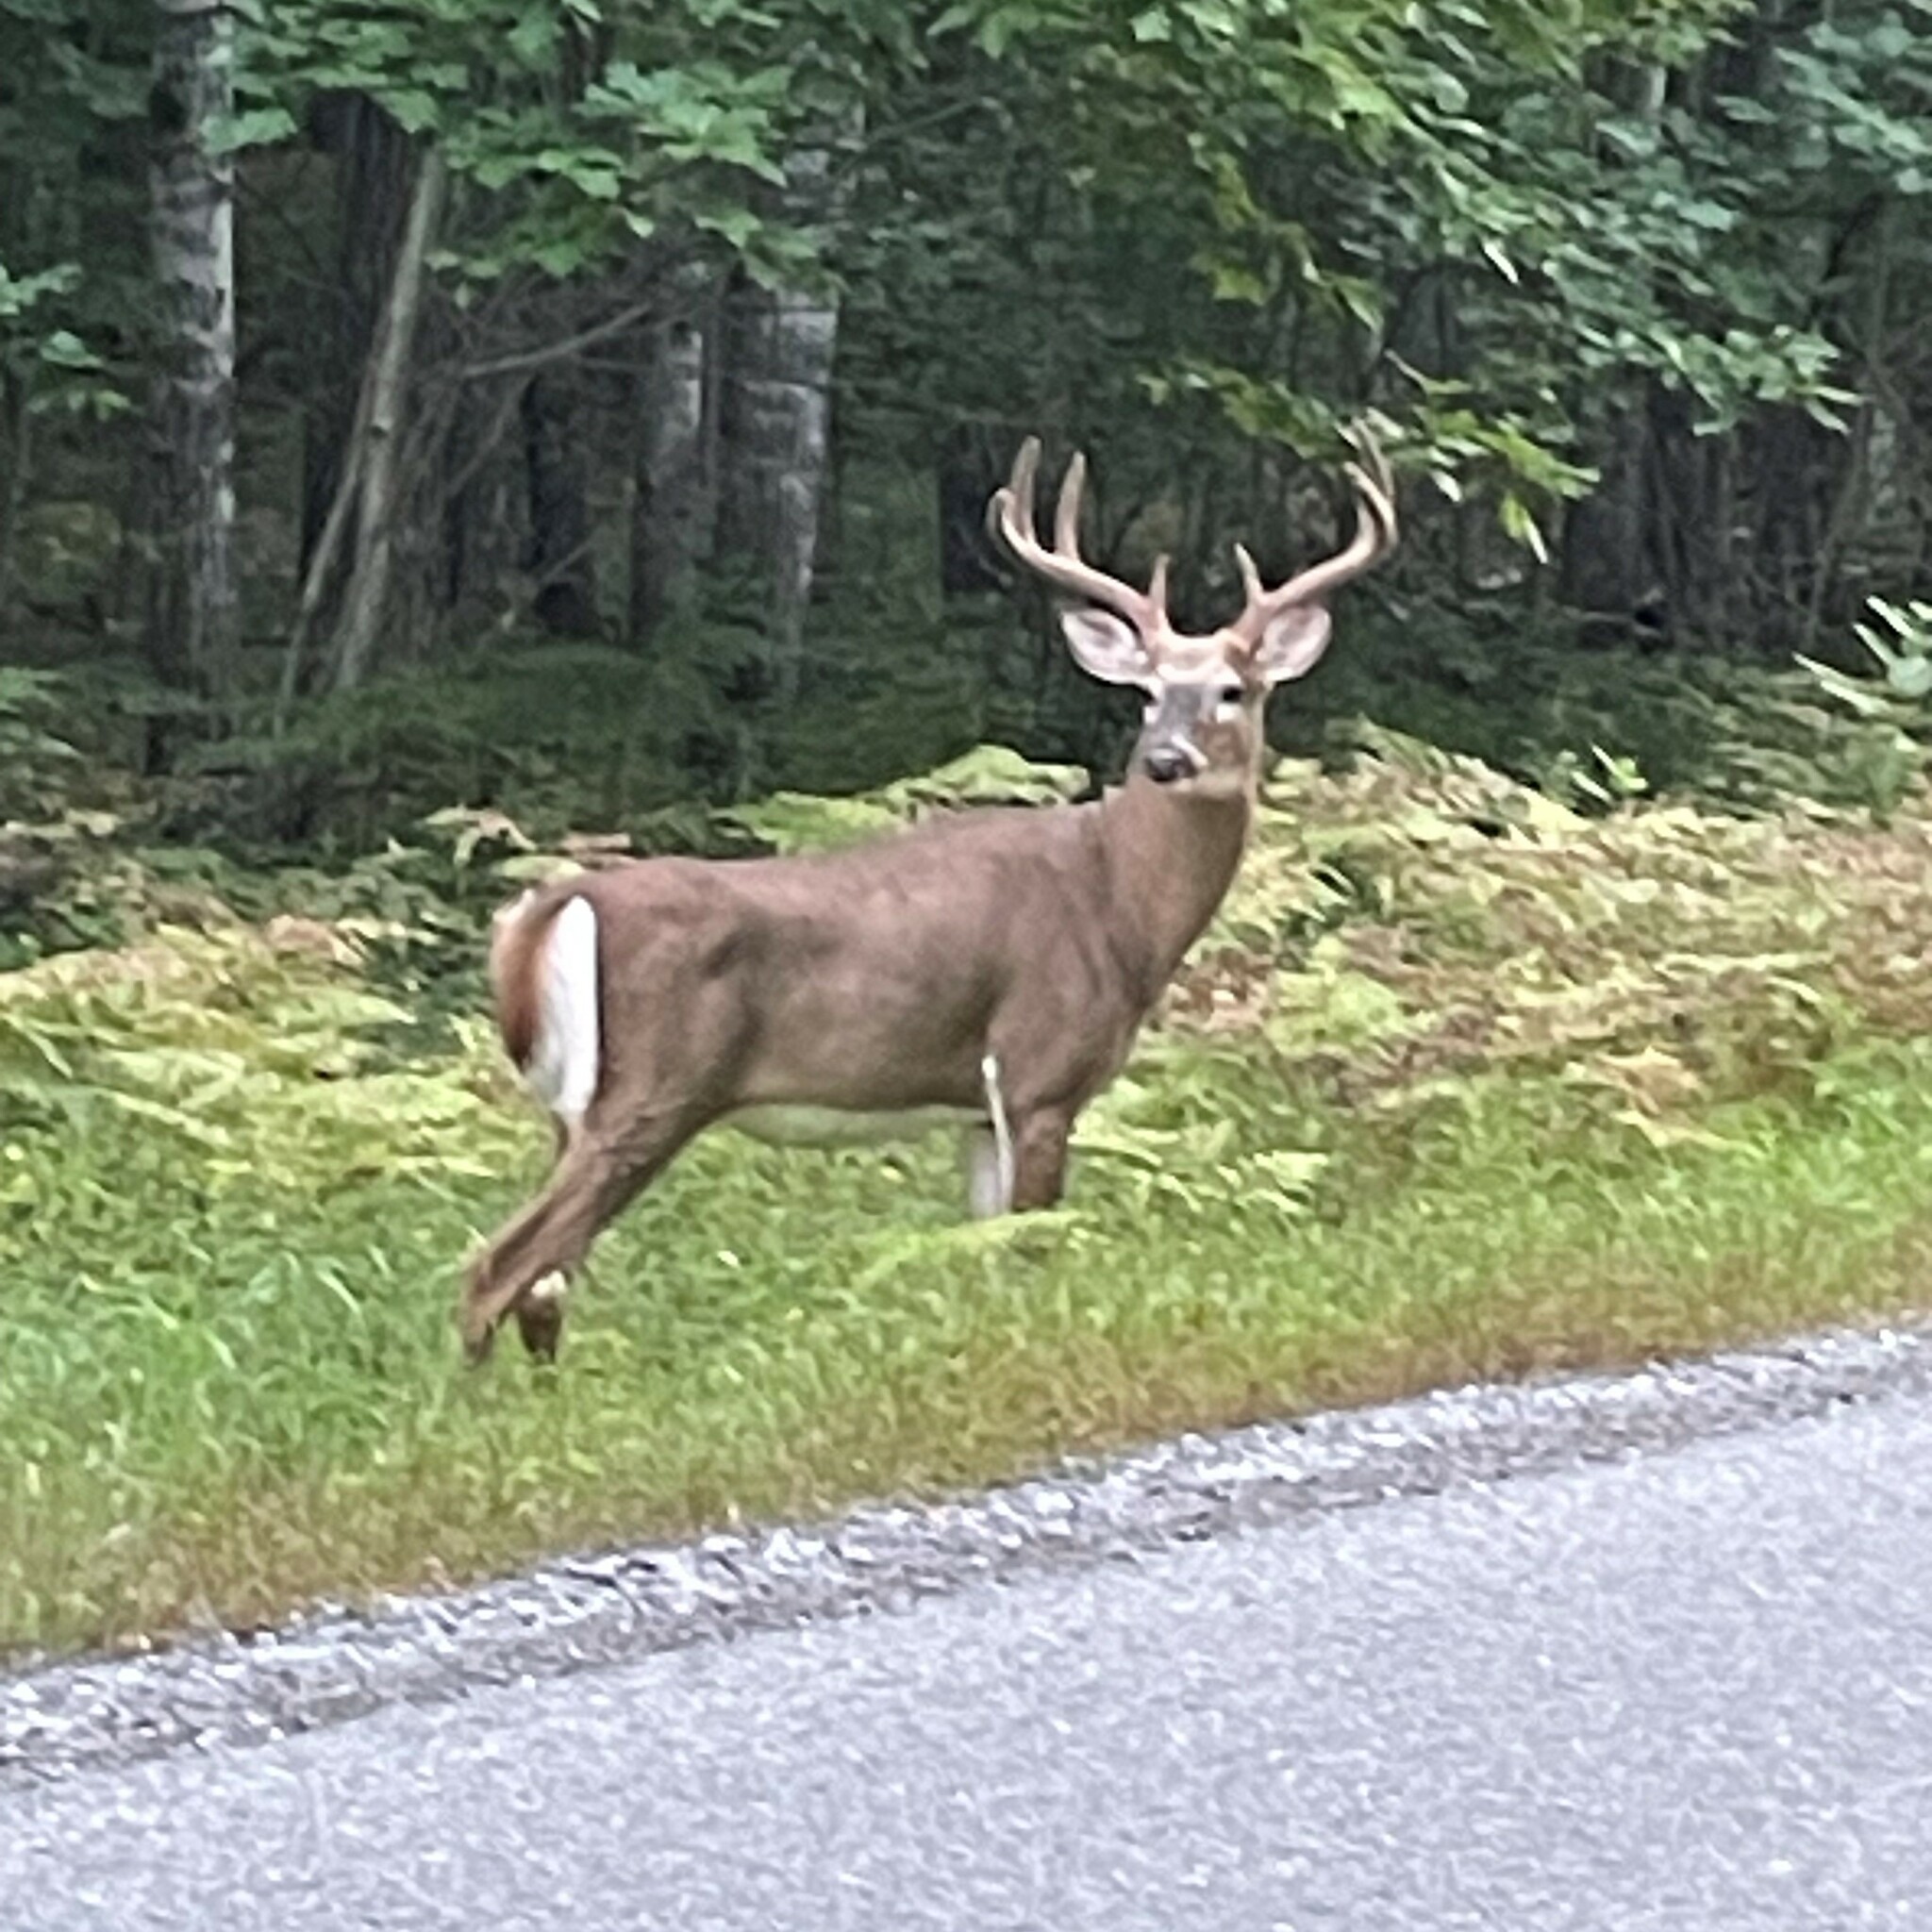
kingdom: Animalia
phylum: Chordata
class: Mammalia
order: Artiodactyla
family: Cervidae
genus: Odocoileus
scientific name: Odocoileus virginianus
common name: White-tailed deer
